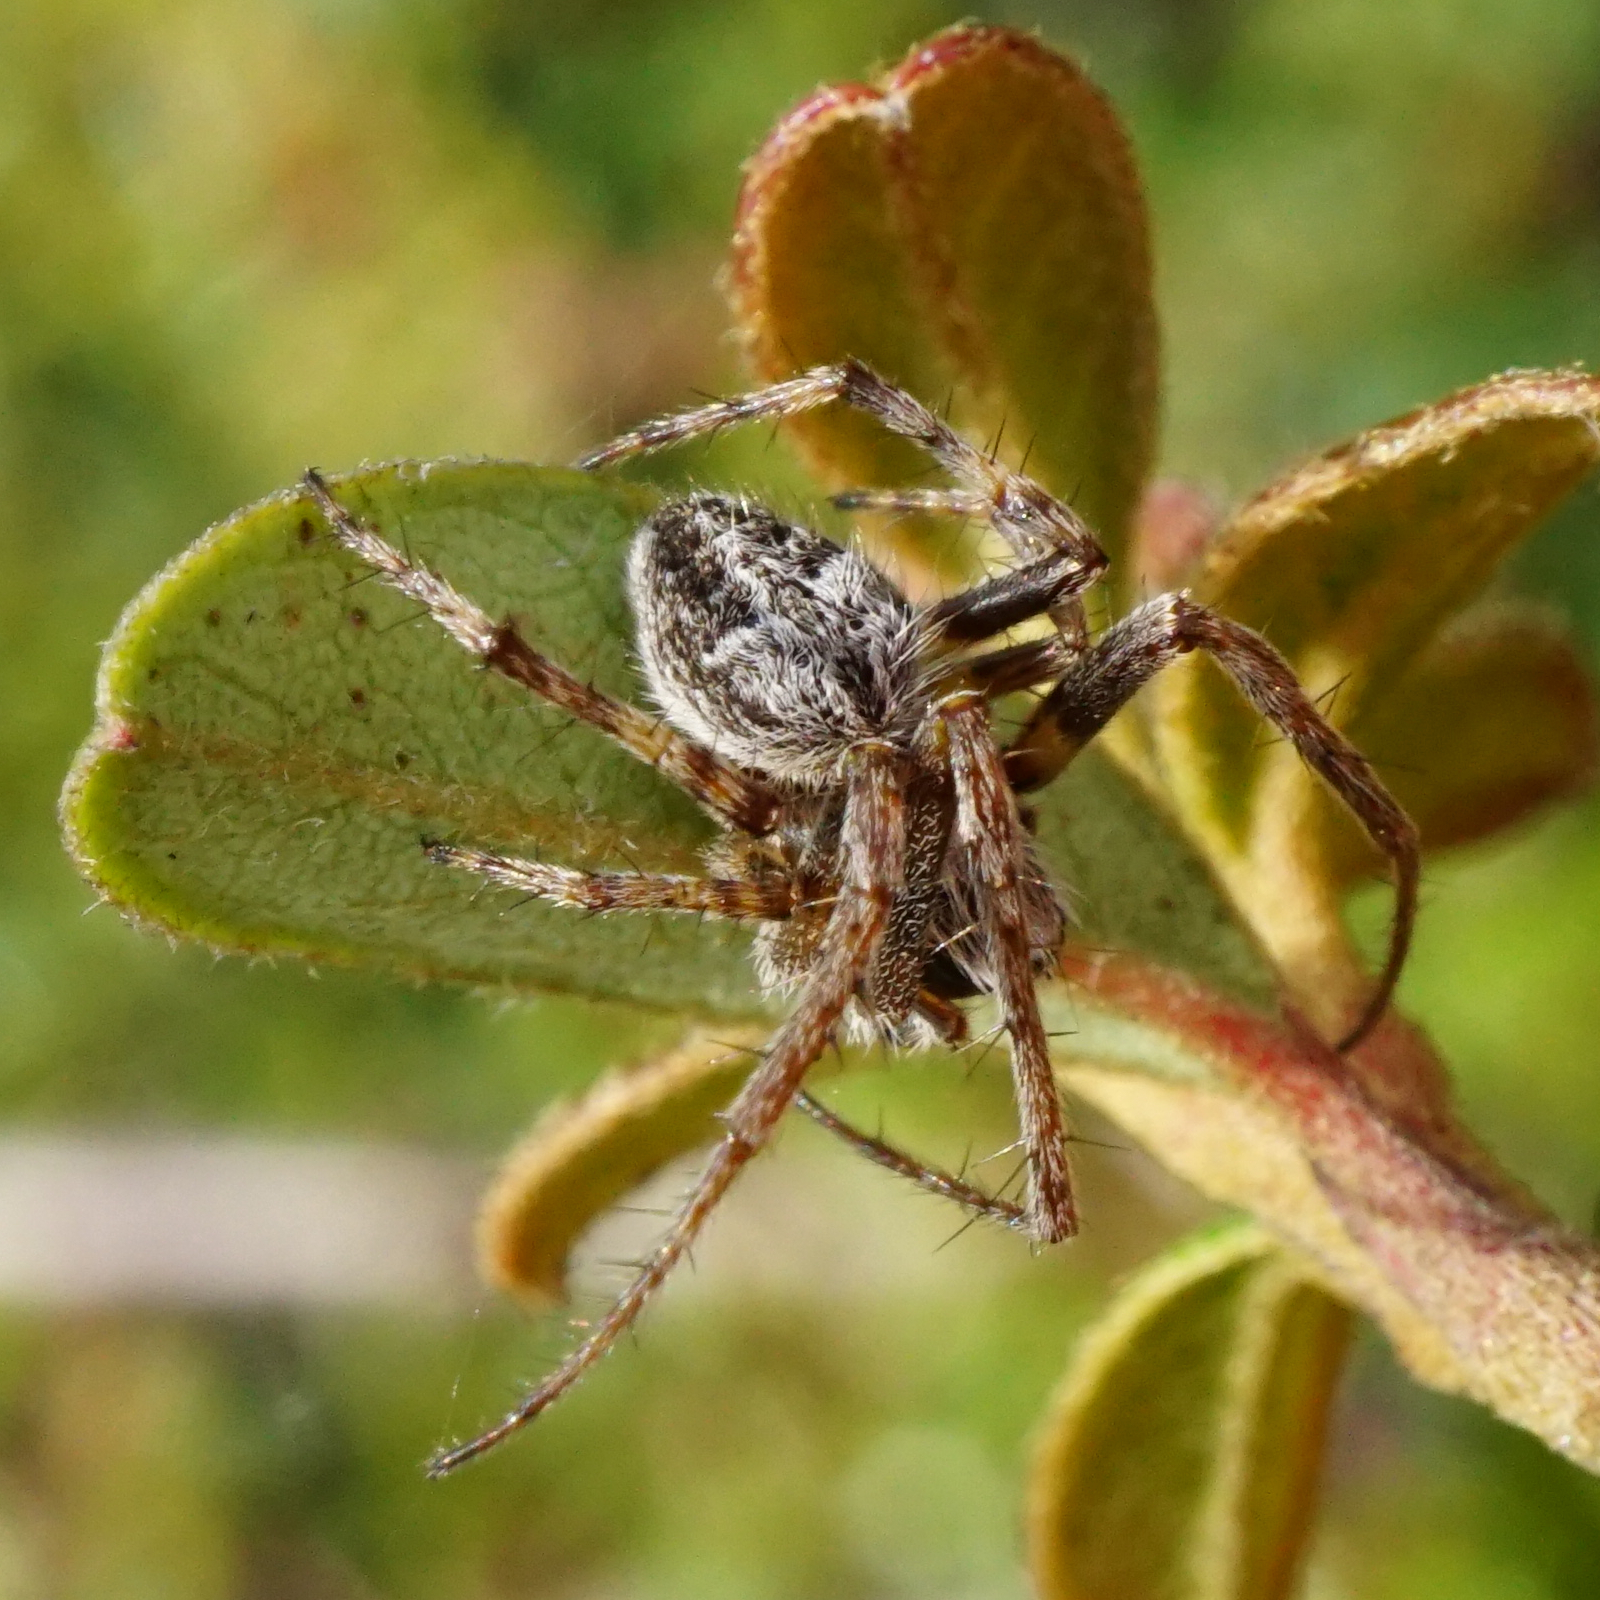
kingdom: Animalia
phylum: Arthropoda
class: Arachnida
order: Araneae
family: Araneidae
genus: Agalenatea
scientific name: Agalenatea redii
